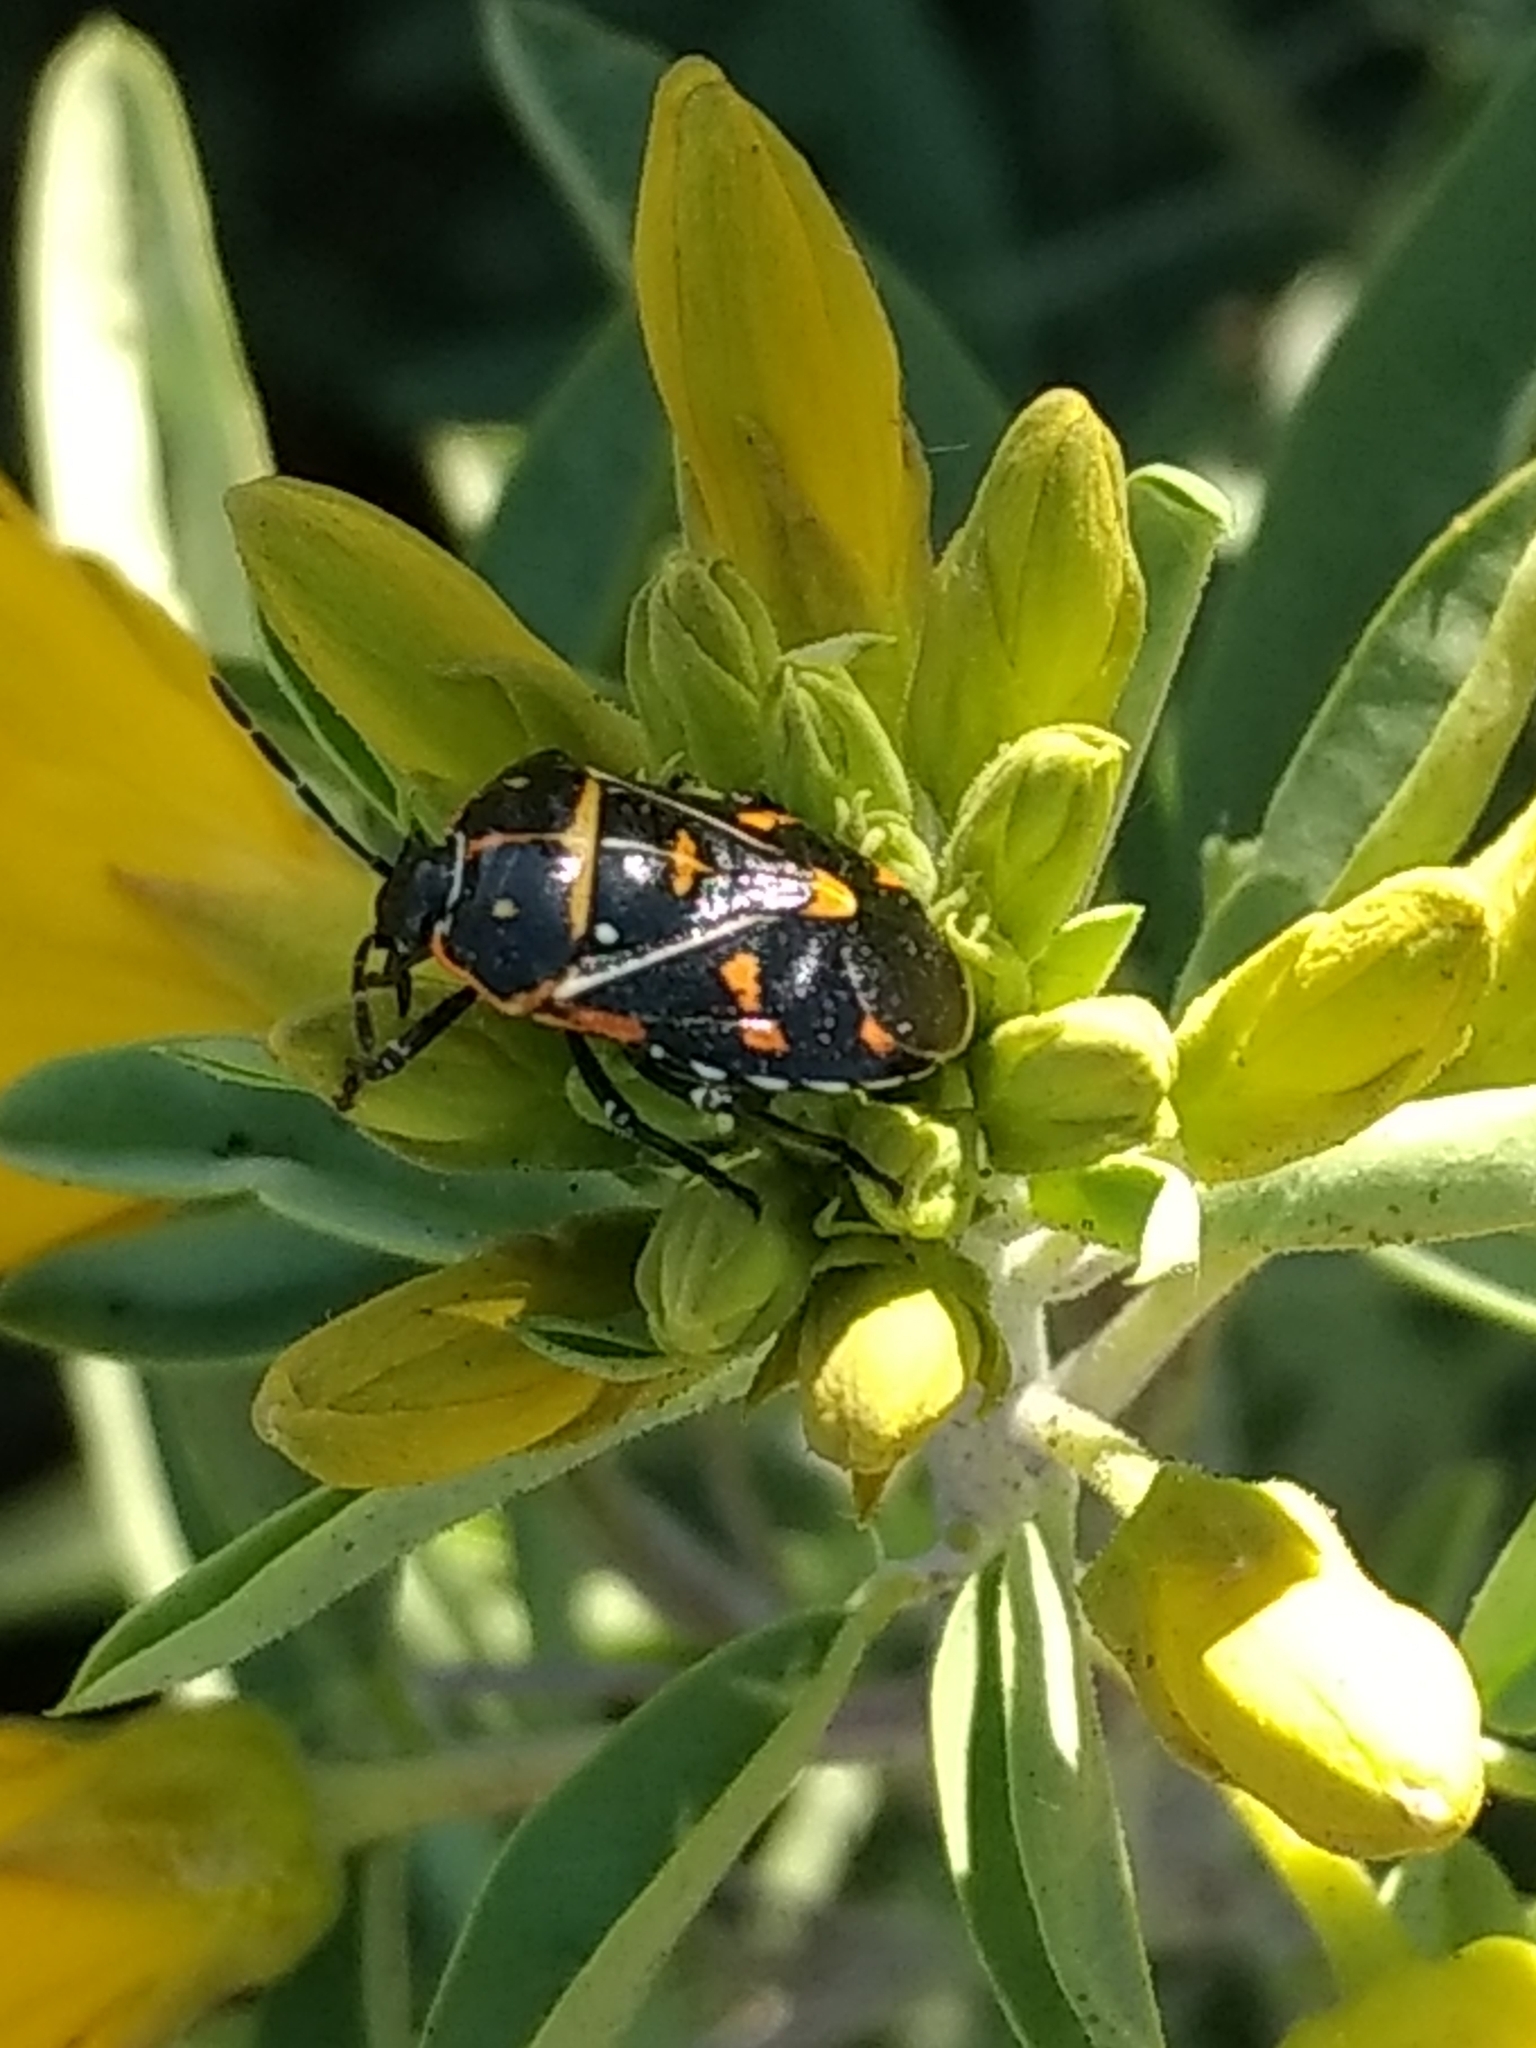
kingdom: Animalia
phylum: Arthropoda
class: Insecta
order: Hemiptera
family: Pentatomidae
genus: Murgantia
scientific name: Murgantia histrionica
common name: Harlequin bug
